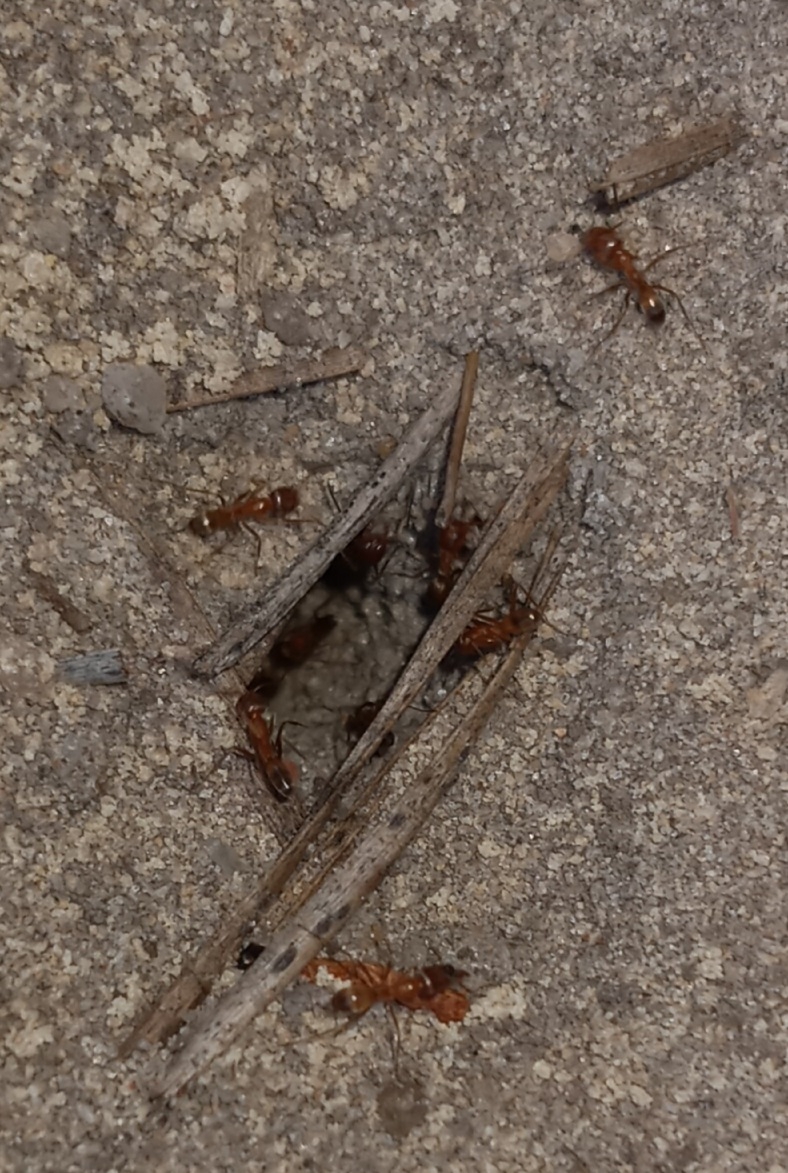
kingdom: Animalia
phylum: Arthropoda
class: Insecta
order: Hymenoptera
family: Formicidae
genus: Dorymyrmex
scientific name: Dorymyrmex bureni
